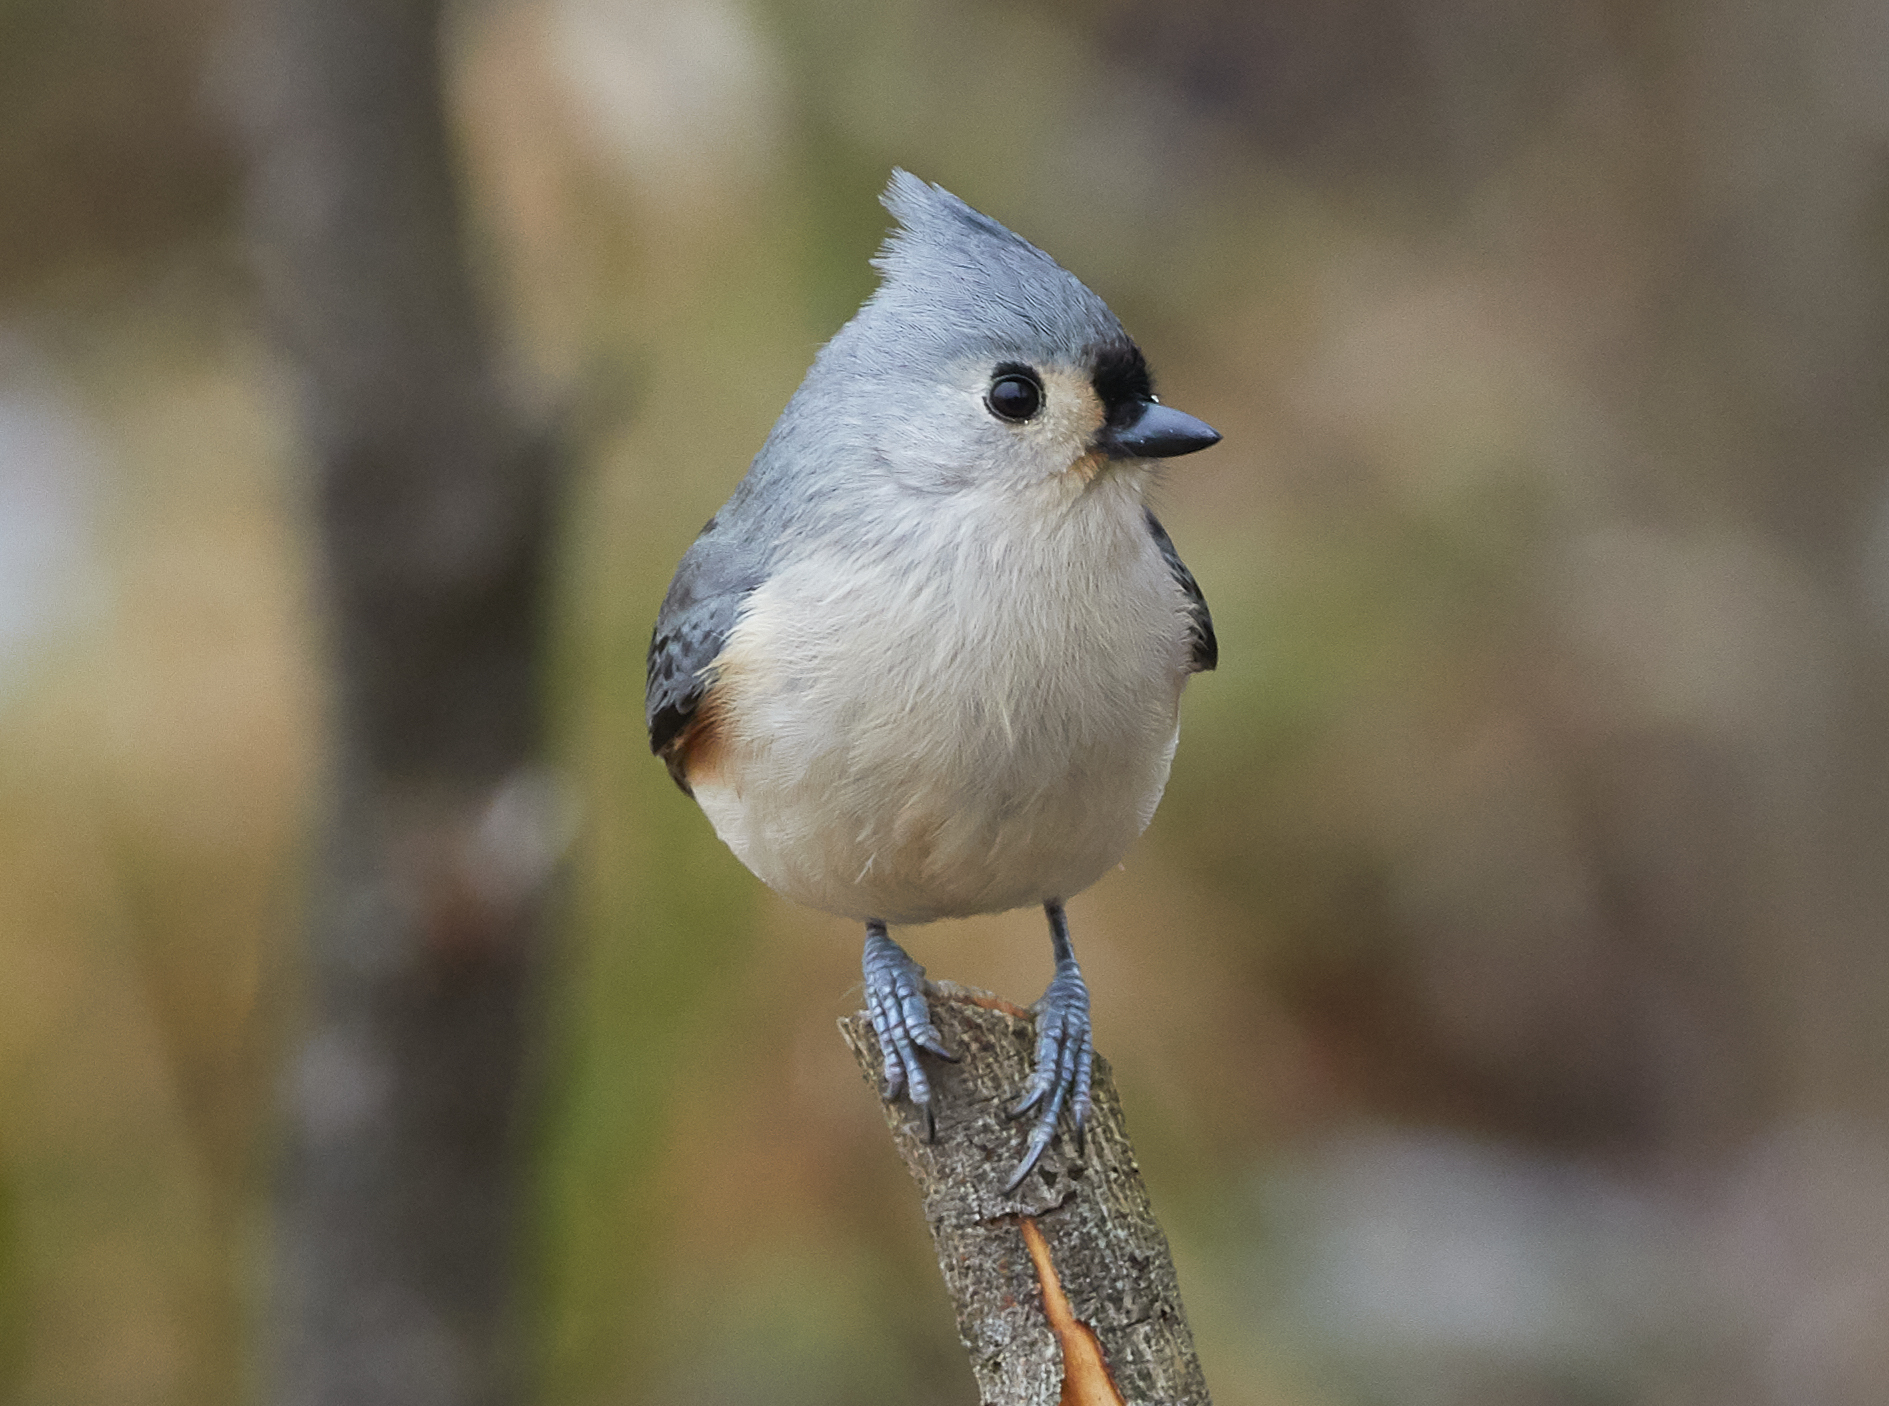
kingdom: Animalia
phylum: Chordata
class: Aves
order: Passeriformes
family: Paridae
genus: Baeolophus
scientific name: Baeolophus bicolor
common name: Tufted titmouse
